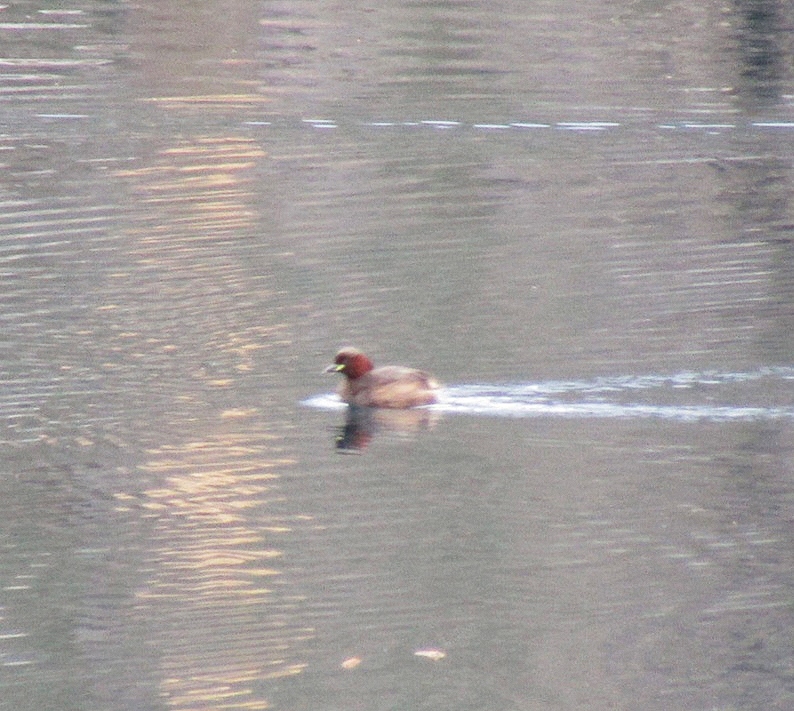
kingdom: Animalia
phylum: Chordata
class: Aves
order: Podicipediformes
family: Podicipedidae
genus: Tachybaptus
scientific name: Tachybaptus ruficollis
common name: Little grebe
